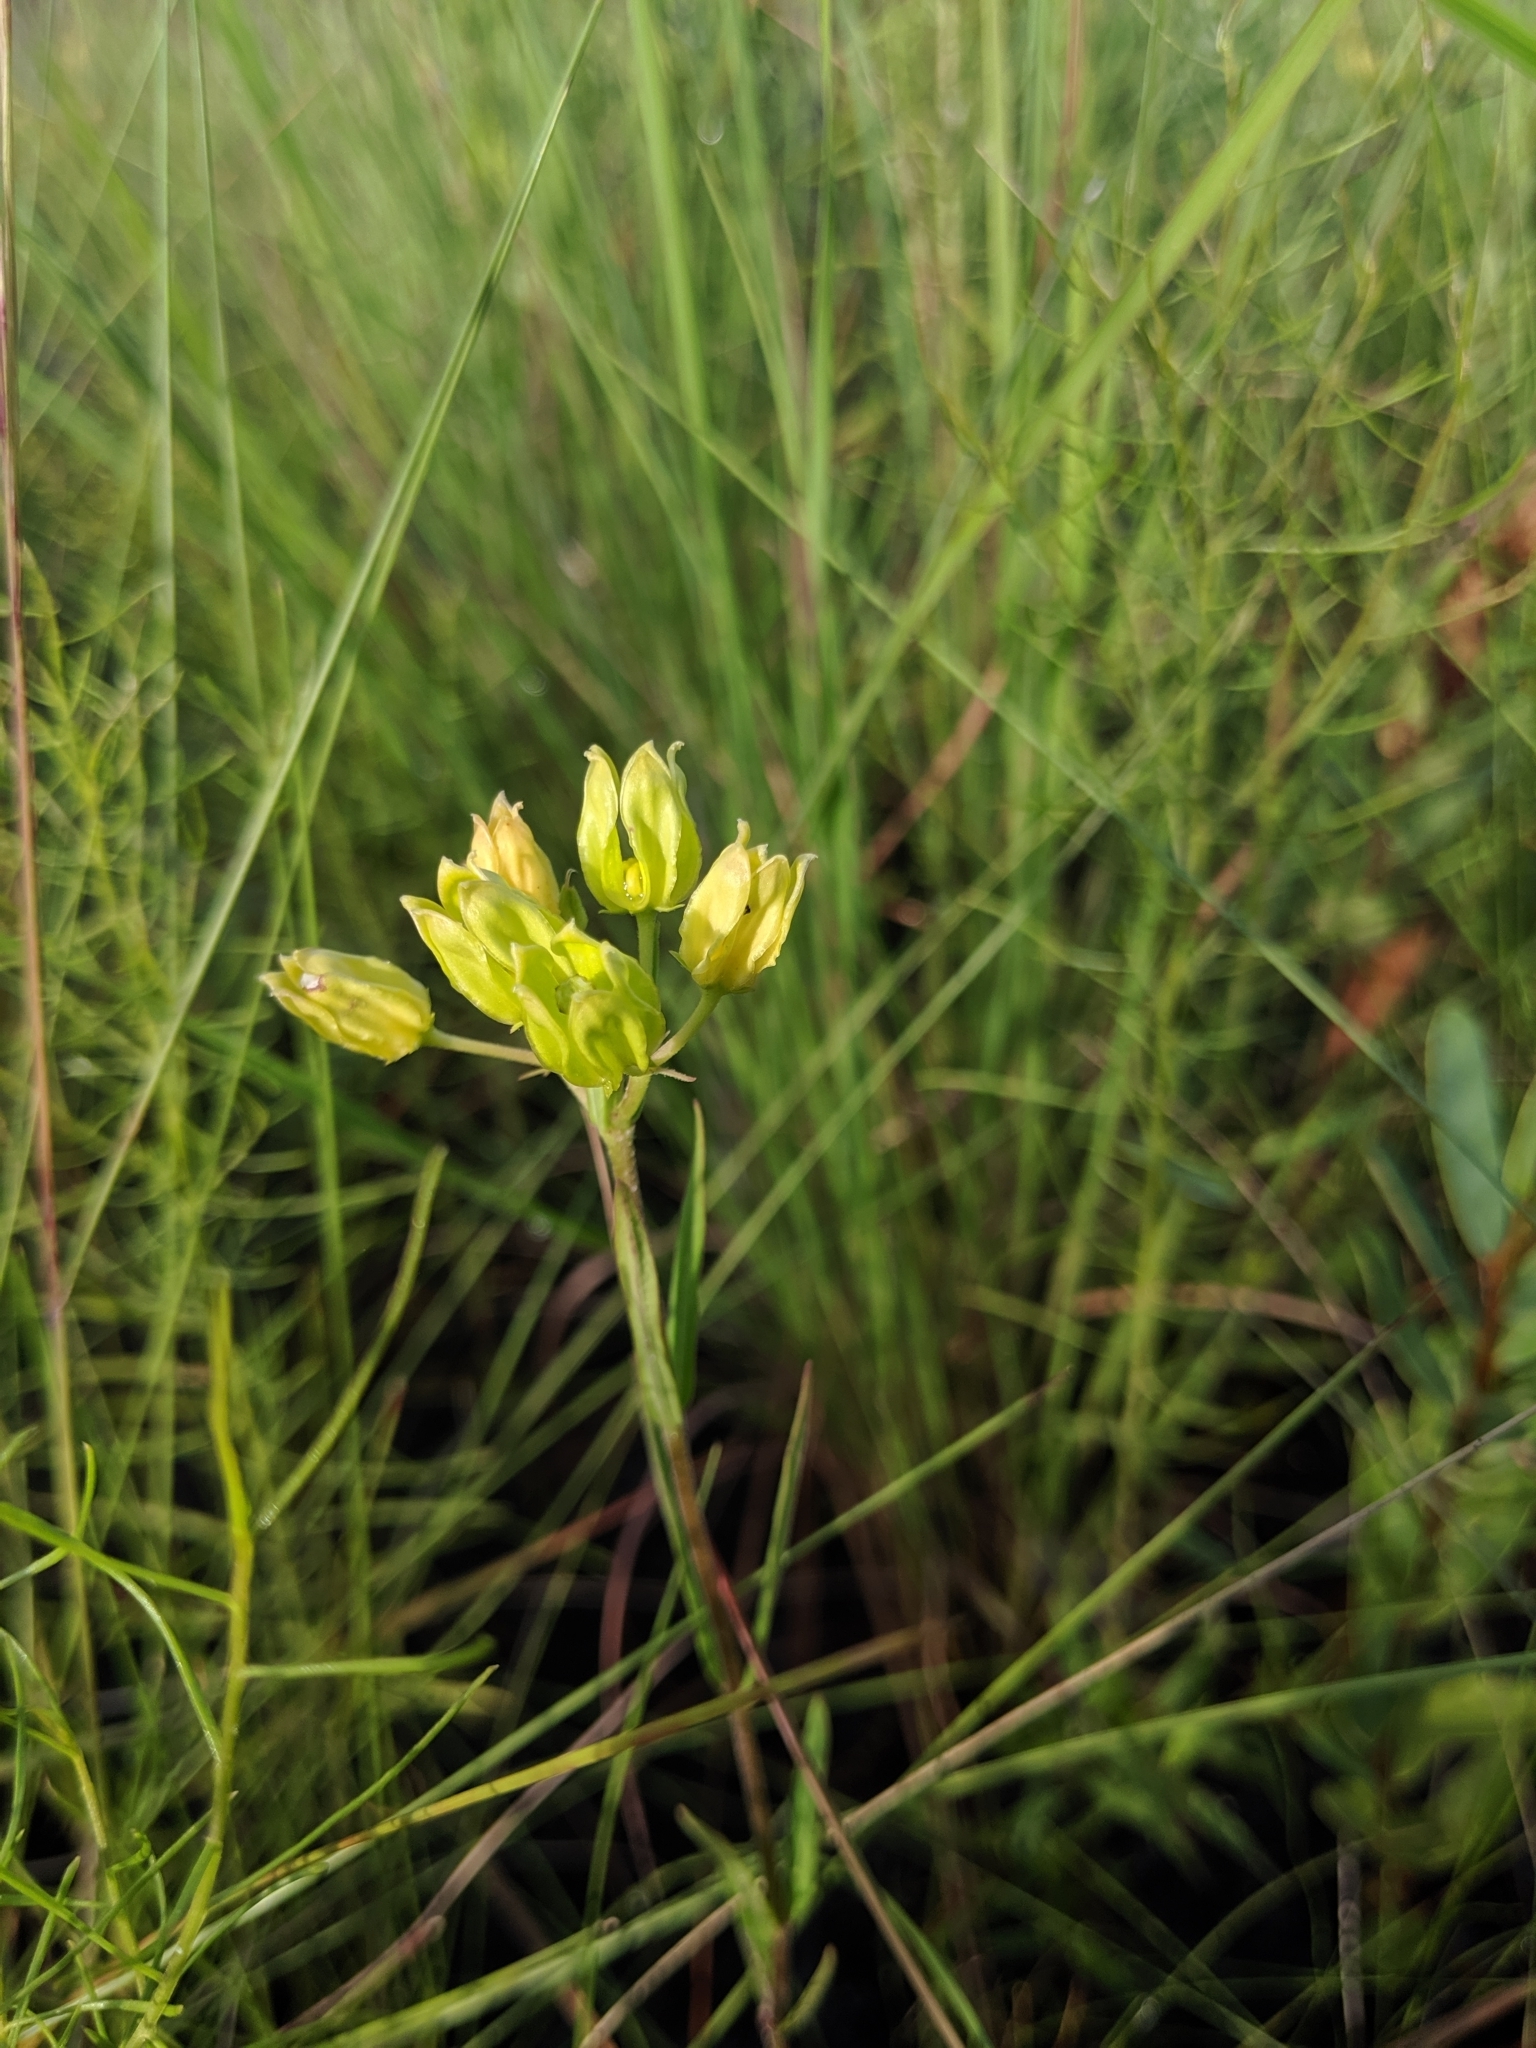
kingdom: Plantae
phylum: Tracheophyta
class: Magnoliopsida
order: Gentianales
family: Apocynaceae
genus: Asclepias
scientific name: Asclepias pedicellata
